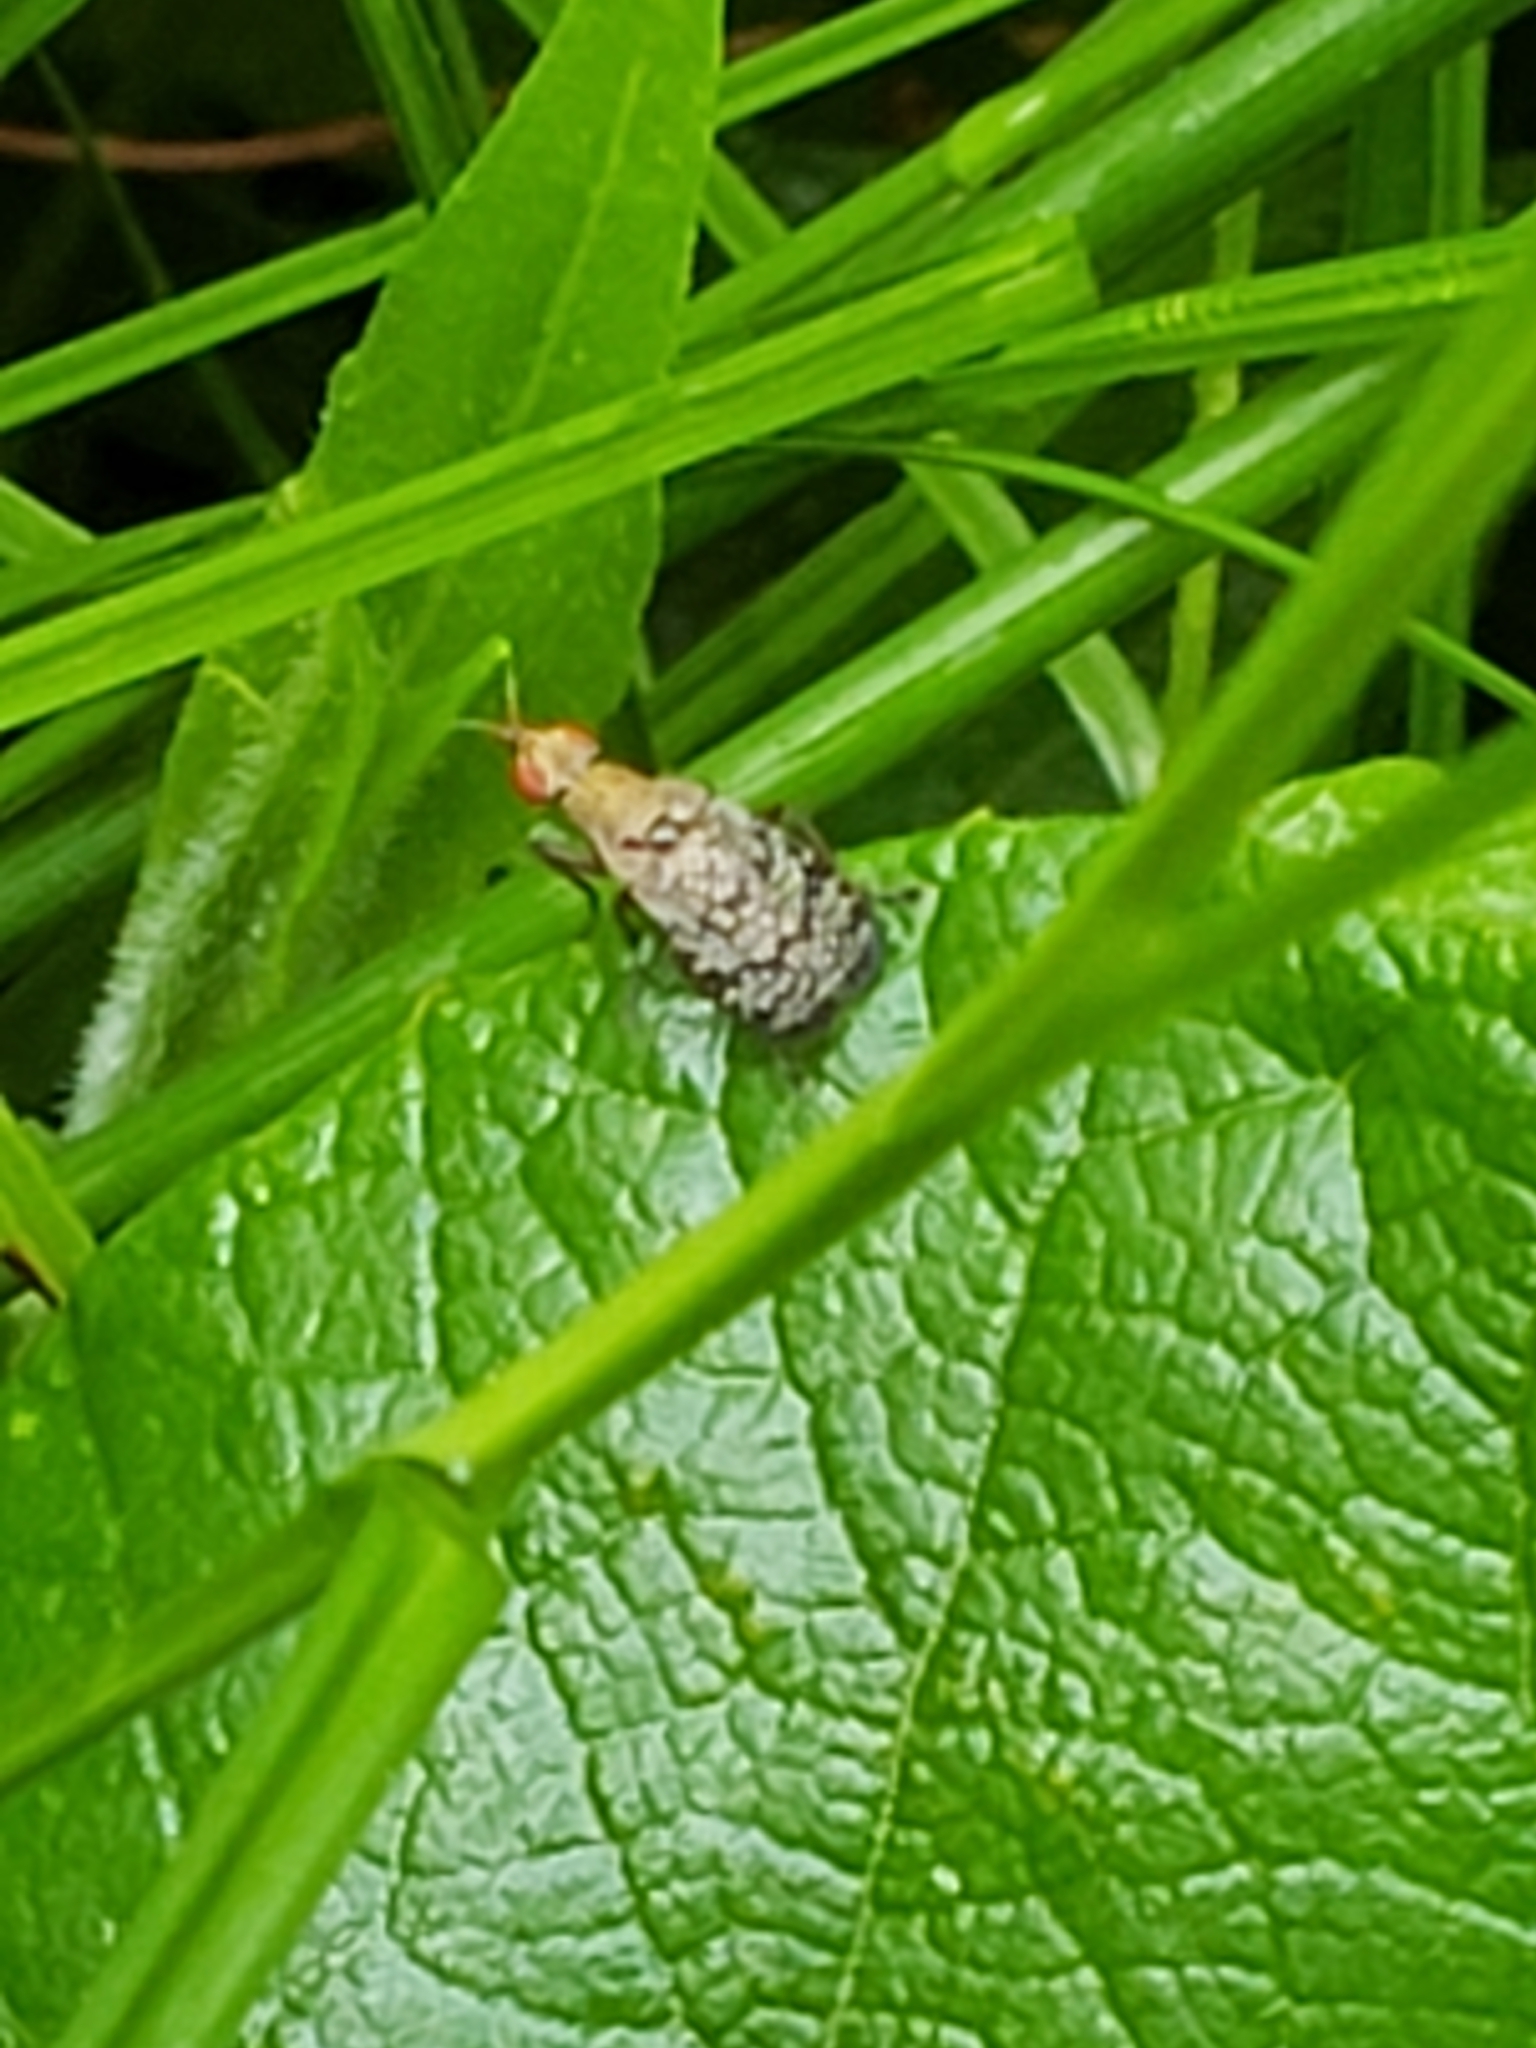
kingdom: Animalia
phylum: Arthropoda
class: Insecta
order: Diptera
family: Sciomyzidae
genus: Euthycera
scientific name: Euthycera flavescens
